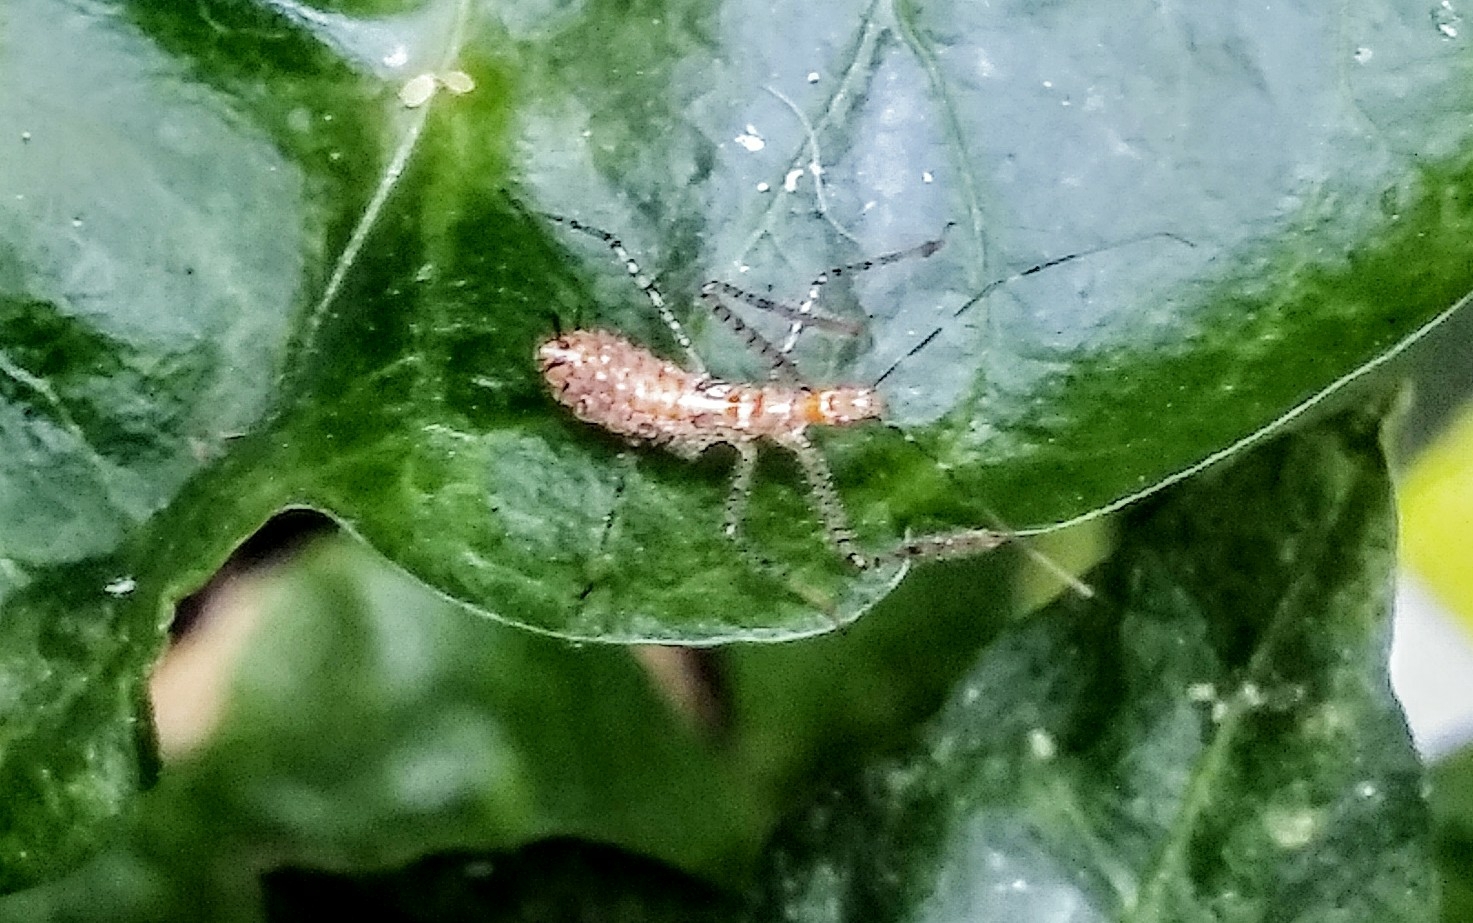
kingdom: Animalia
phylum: Arthropoda
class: Insecta
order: Hemiptera
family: Reduviidae
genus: Zelus
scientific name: Zelus renardii
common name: Assassin bug
